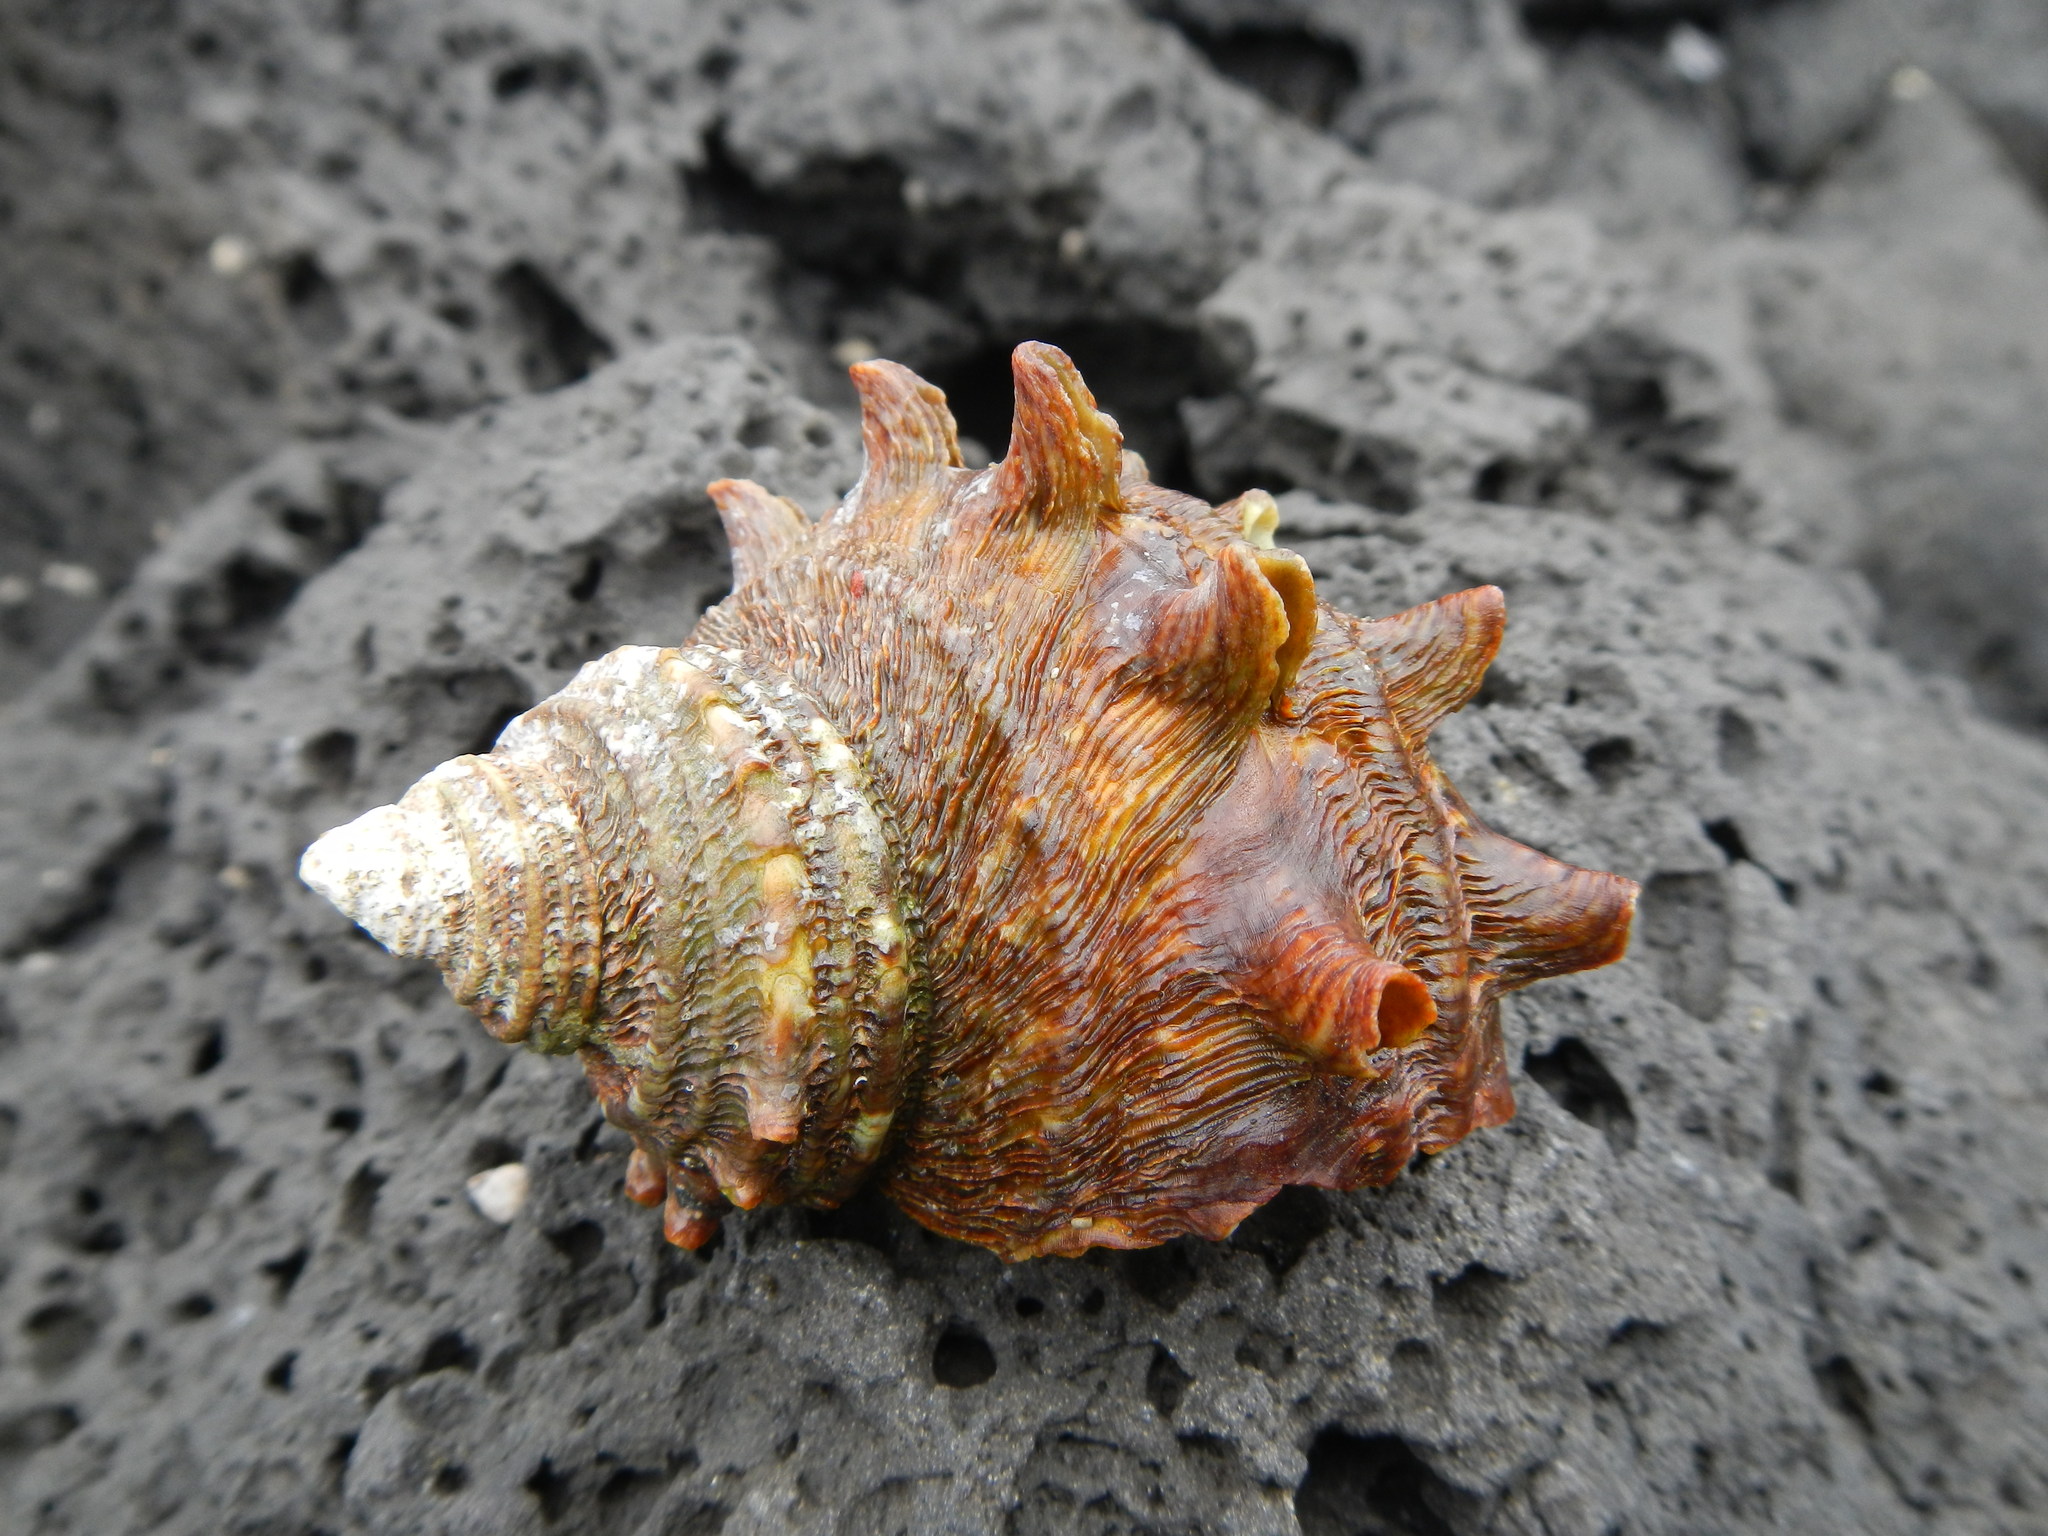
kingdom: Animalia
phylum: Mollusca
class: Gastropoda
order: Trochida
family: Turbinidae
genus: Turbo
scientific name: Turbo sazae
